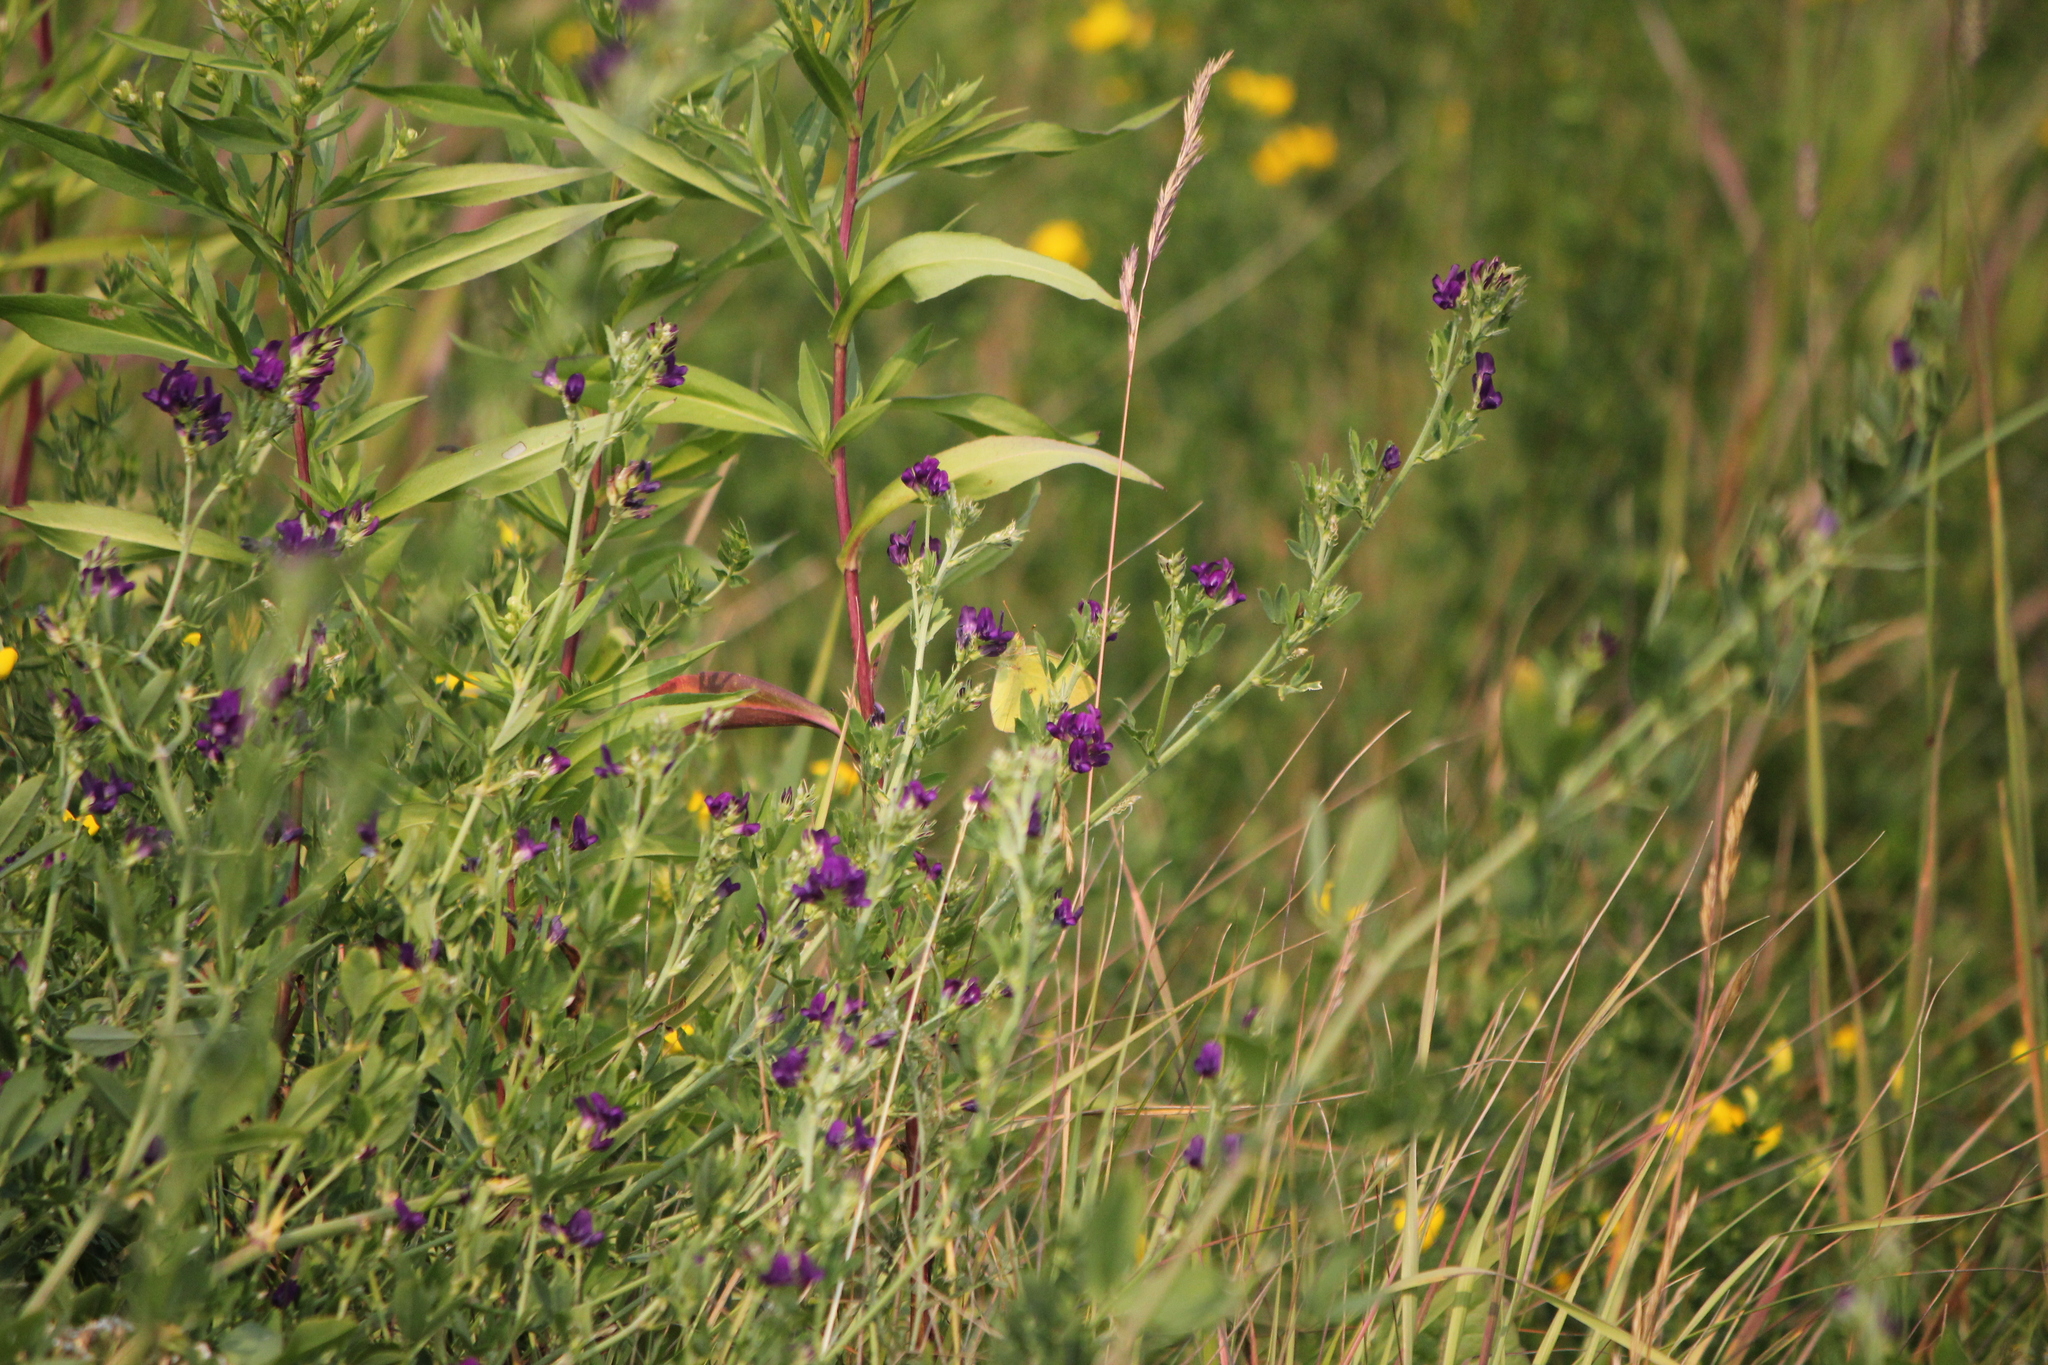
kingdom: Plantae
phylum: Tracheophyta
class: Magnoliopsida
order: Fabales
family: Fabaceae
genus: Medicago
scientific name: Medicago sativa
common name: Alfalfa
